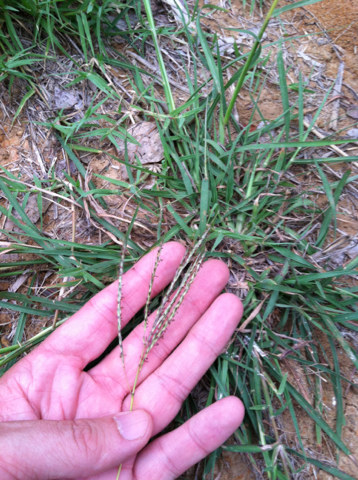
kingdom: Plantae
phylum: Tracheophyta
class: Liliopsida
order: Poales
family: Poaceae
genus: Bothriochloa
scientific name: Bothriochloa ischaemum
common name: Yellow bluestem
